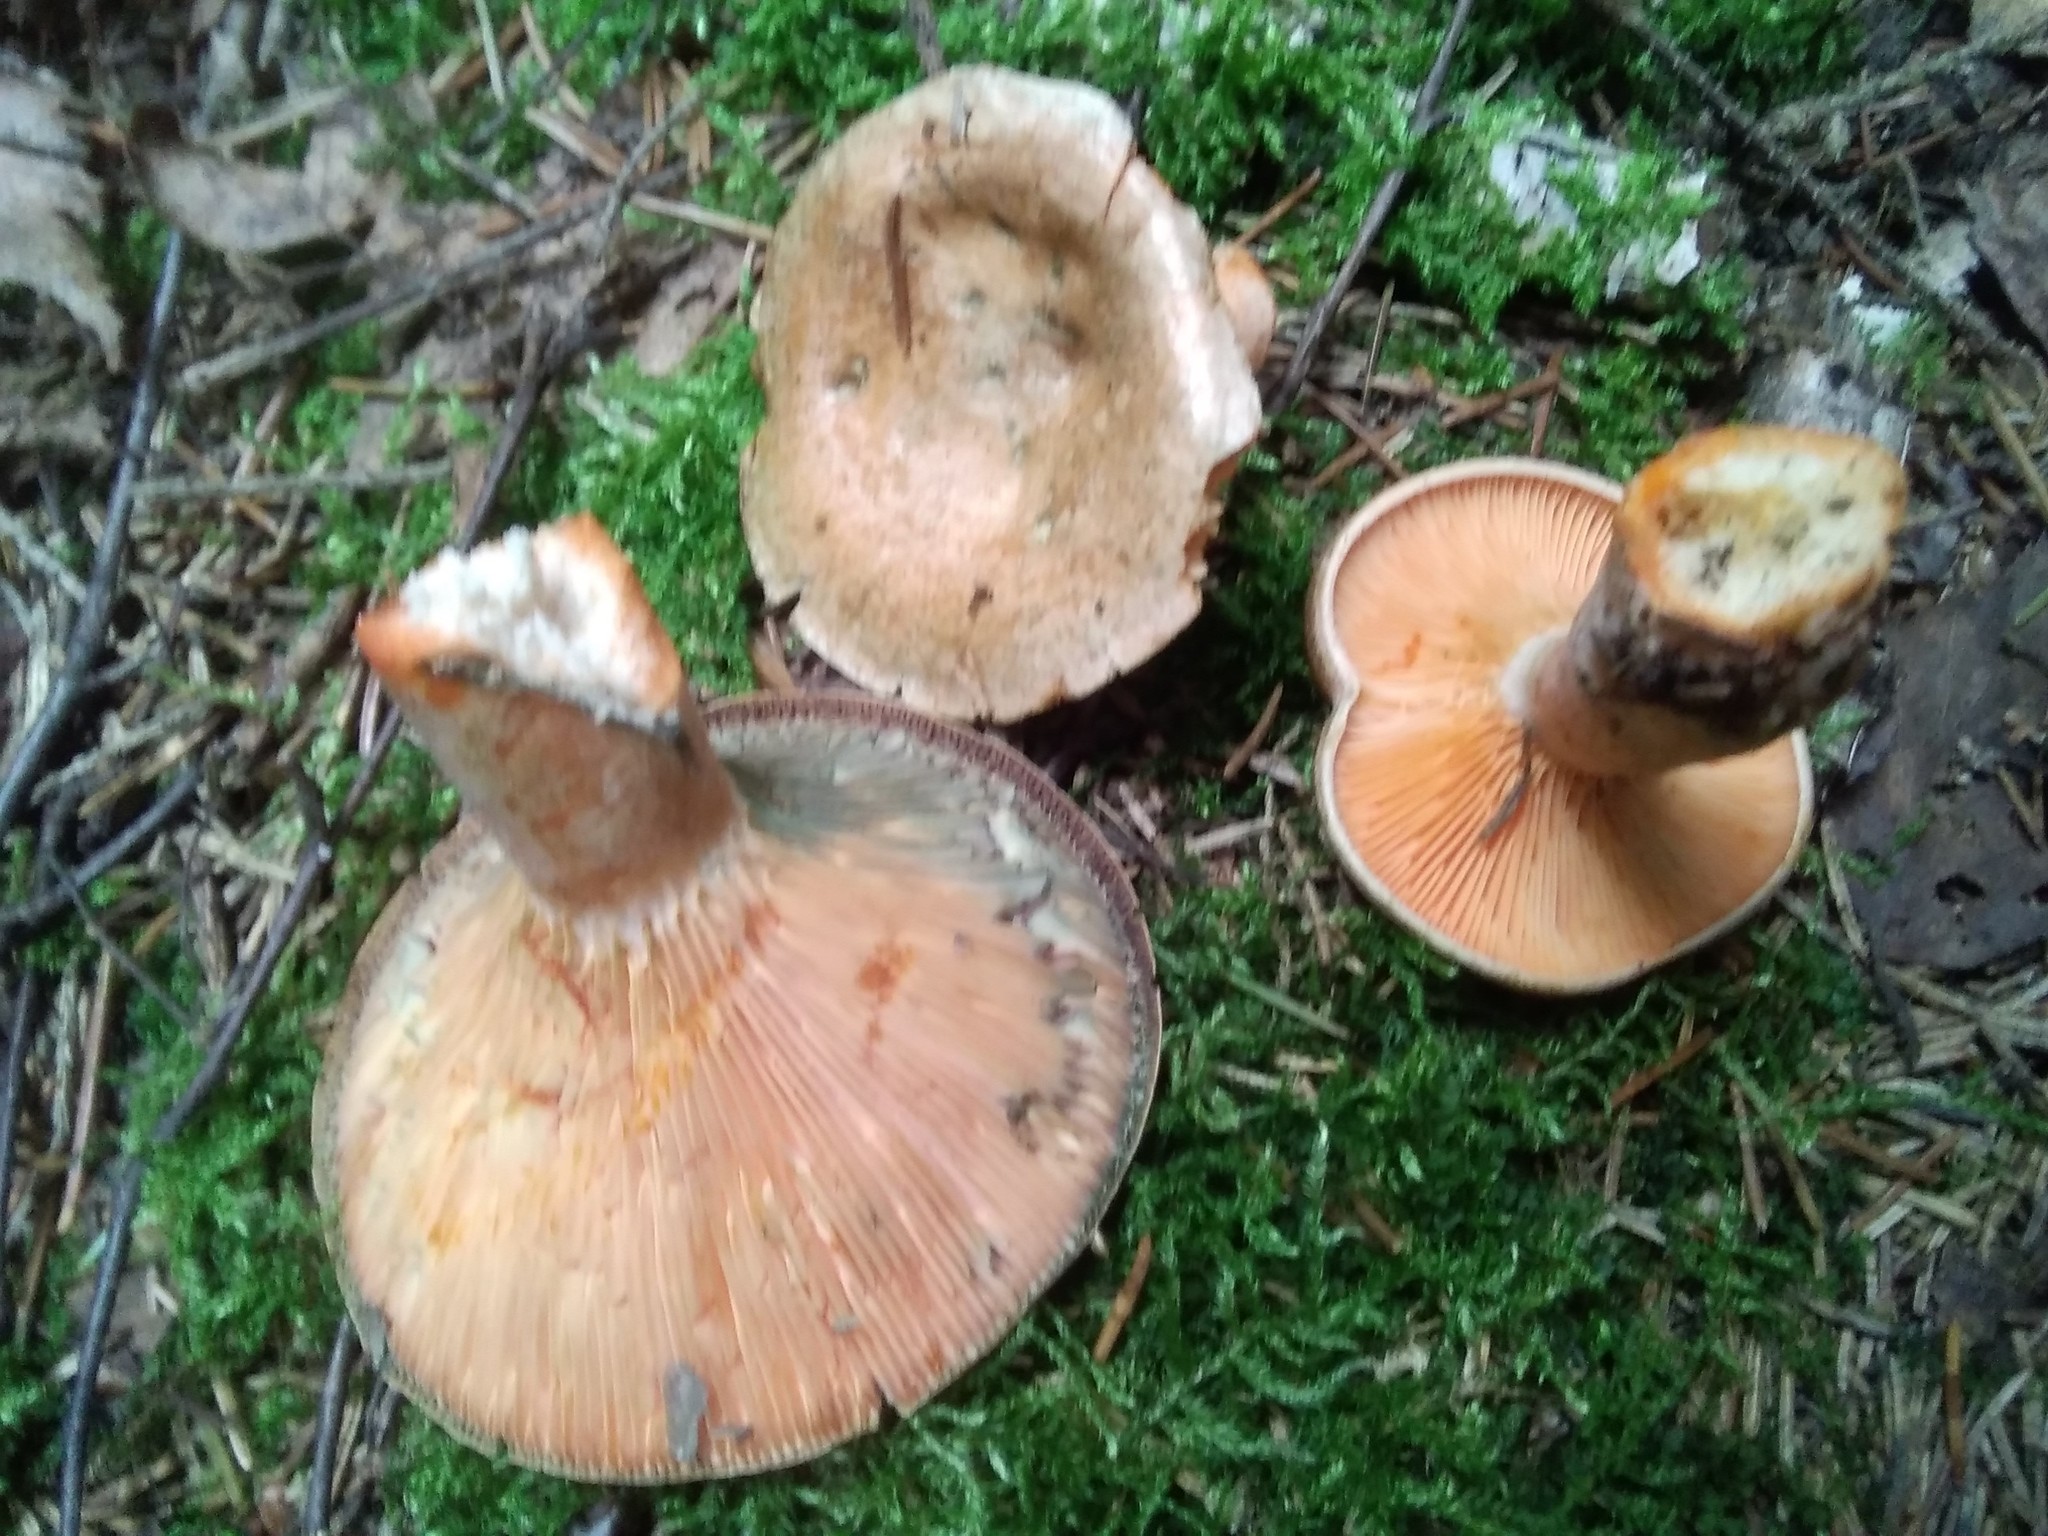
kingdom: Fungi
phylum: Basidiomycota
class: Agaricomycetes
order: Russulales
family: Russulaceae
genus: Lactarius
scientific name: Lactarius deterrimus
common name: False saffron milkcap
